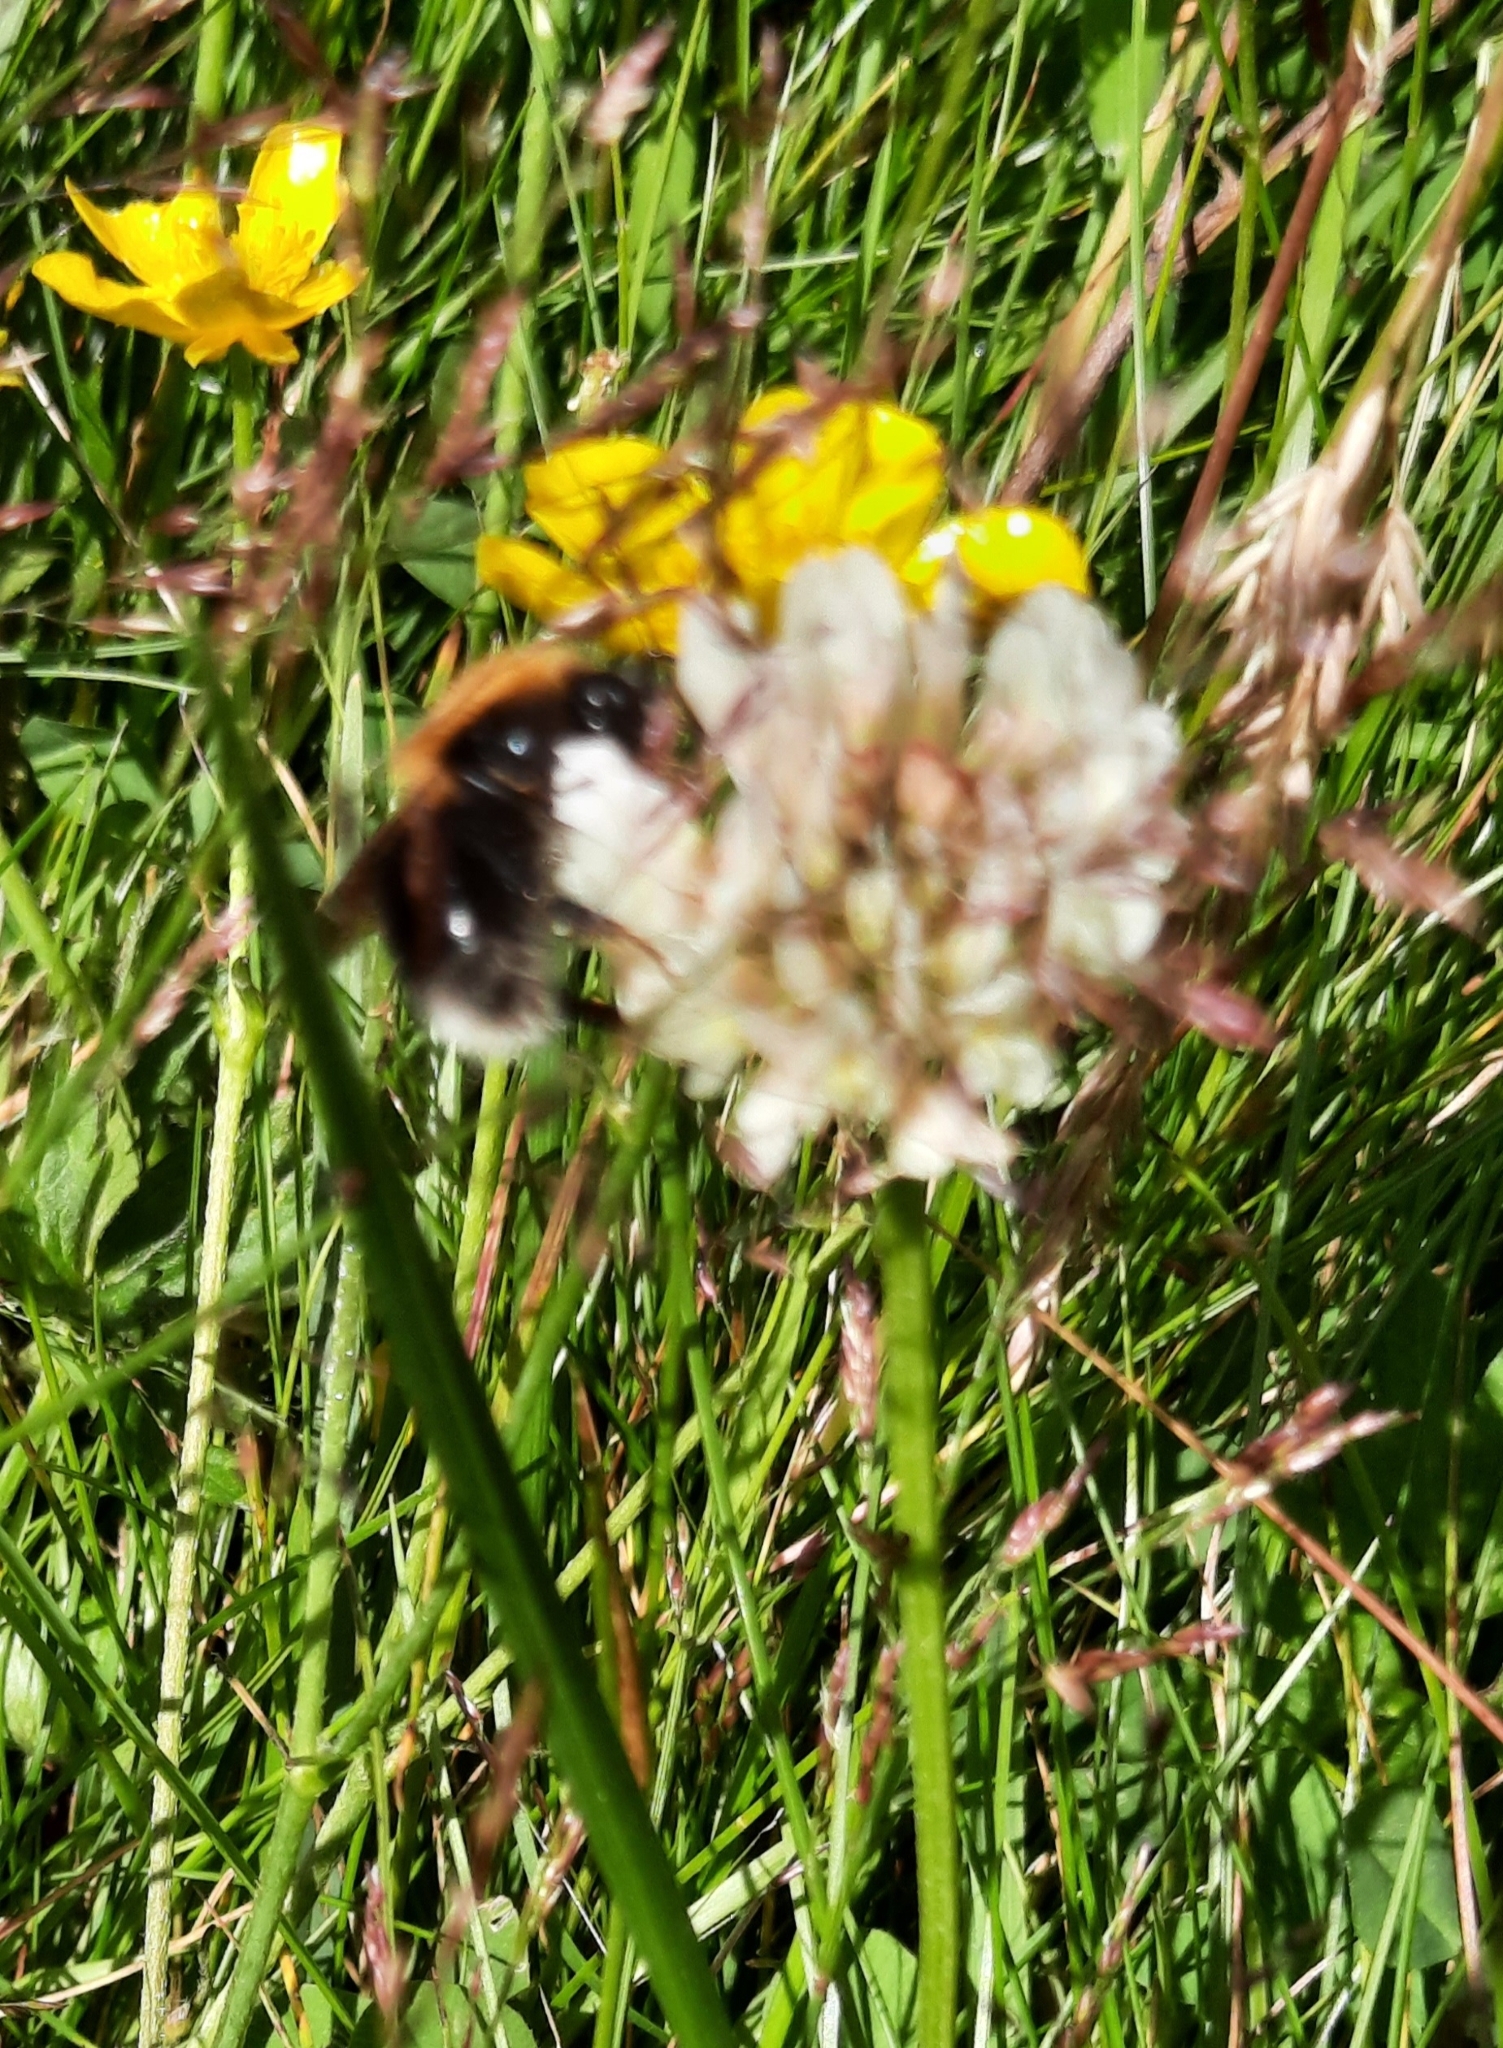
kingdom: Animalia
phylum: Arthropoda
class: Insecta
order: Hymenoptera
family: Apidae
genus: Bombus
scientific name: Bombus hypnorum
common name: New garden bumblebee
